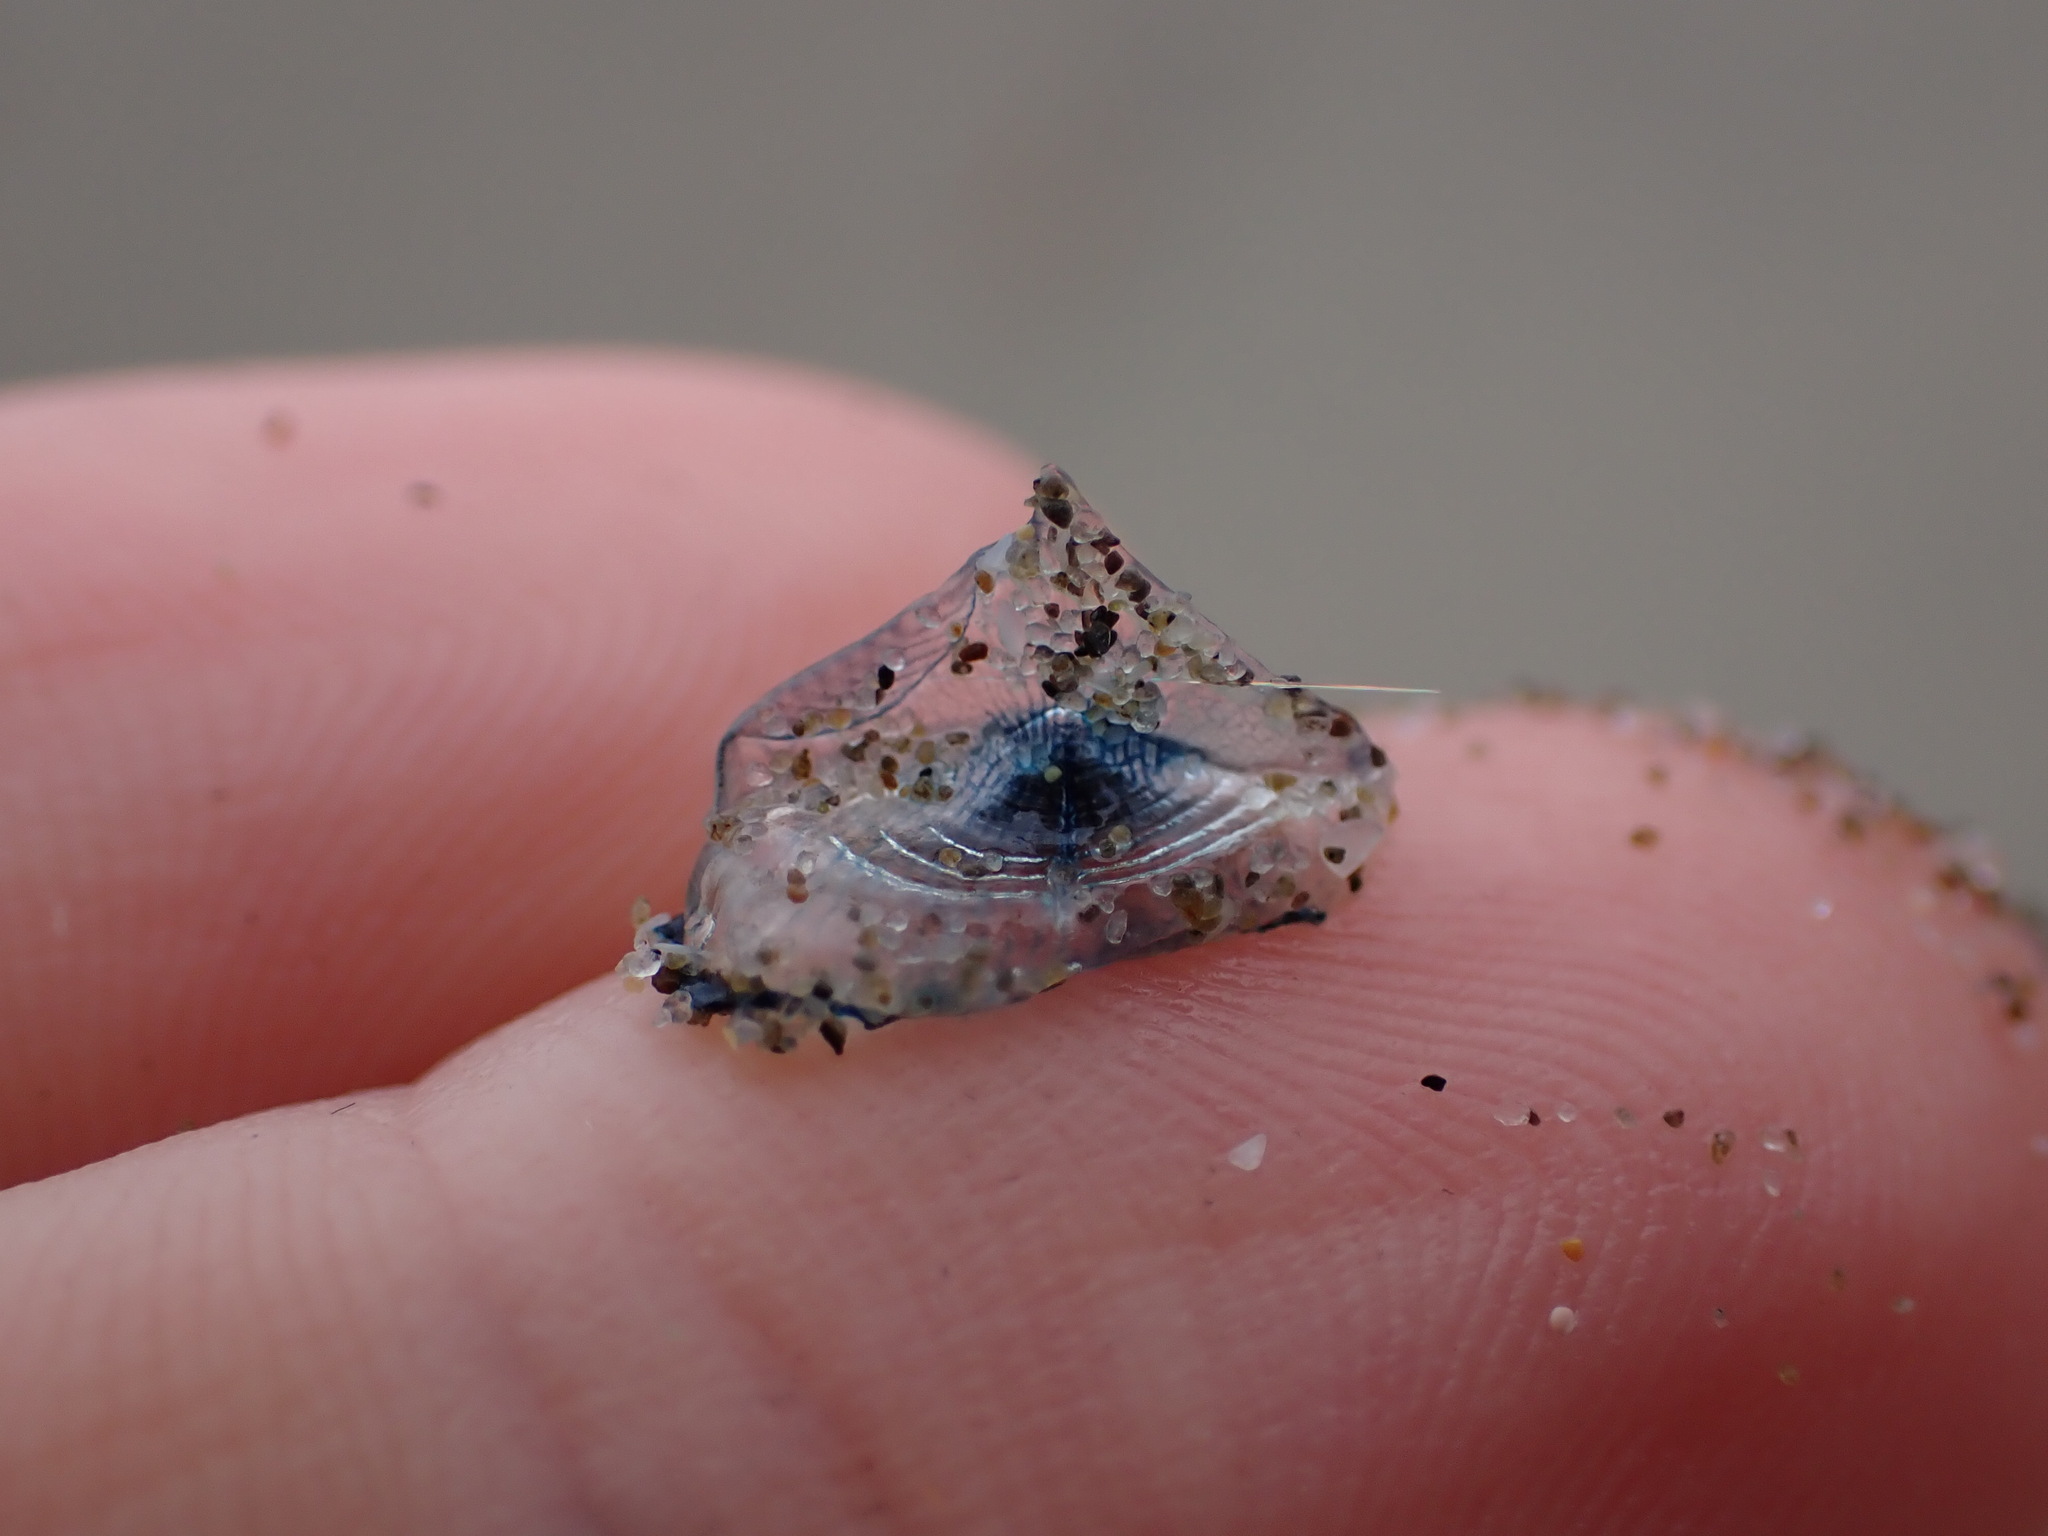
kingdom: Animalia
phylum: Cnidaria
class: Hydrozoa
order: Anthoathecata
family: Porpitidae
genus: Velella
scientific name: Velella velella
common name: By-the-wind-sailor
